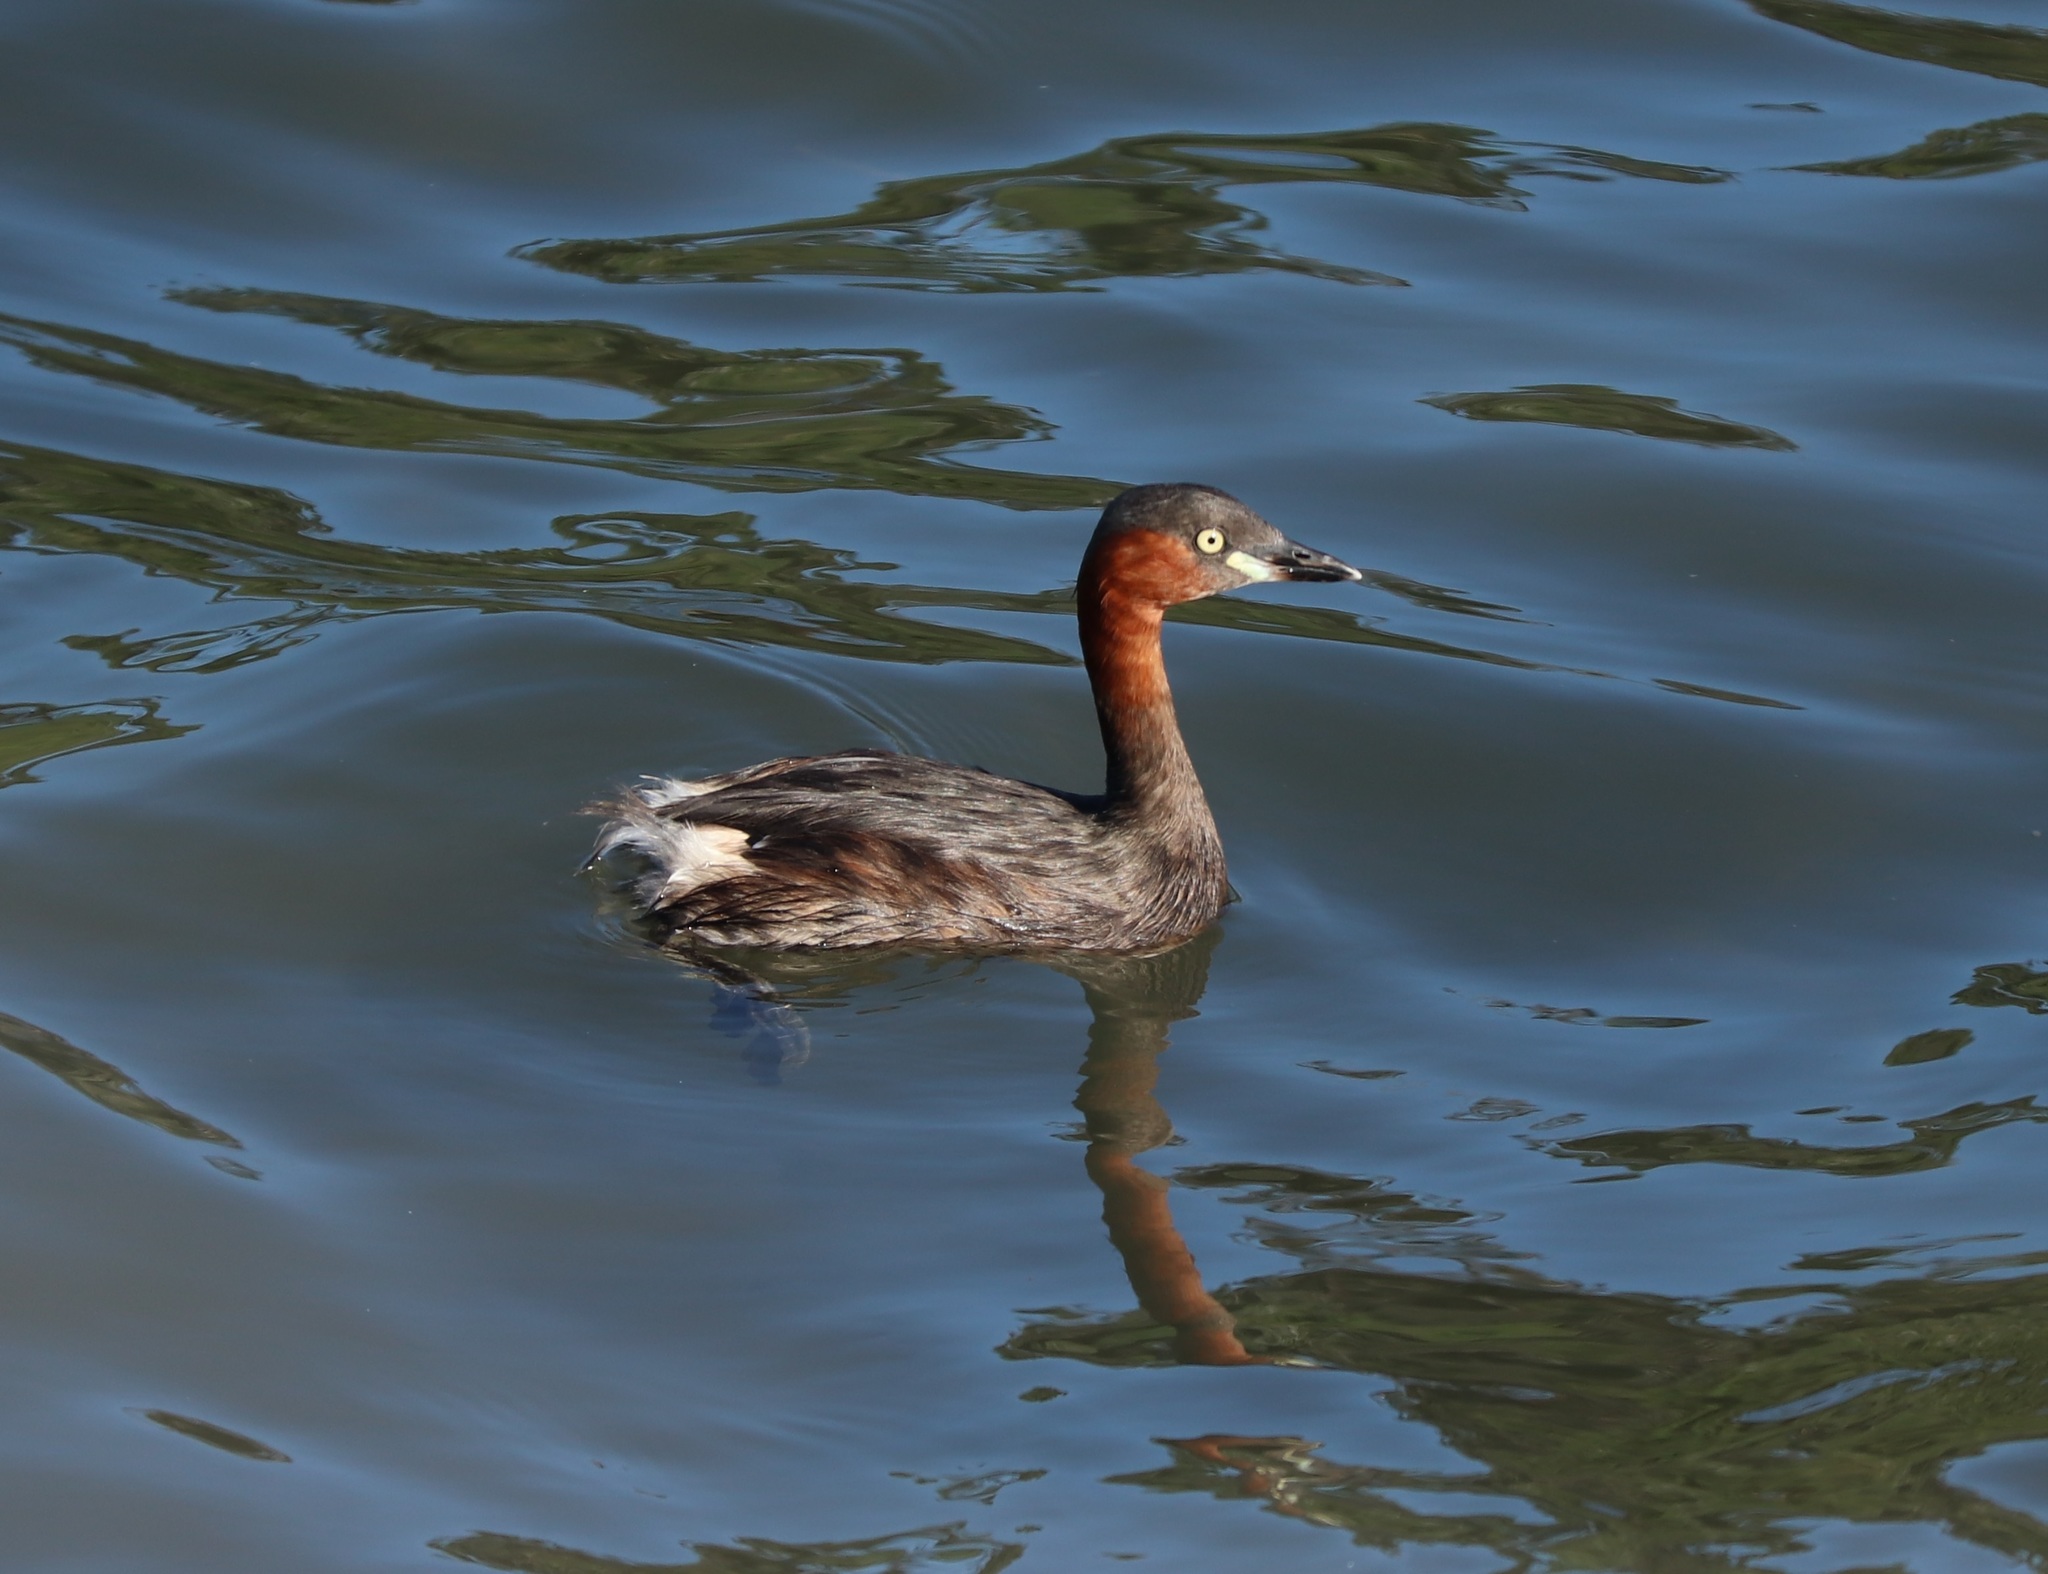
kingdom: Animalia
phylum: Chordata
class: Aves
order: Podicipediformes
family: Podicipedidae
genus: Tachybaptus
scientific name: Tachybaptus ruficollis
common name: Little grebe
